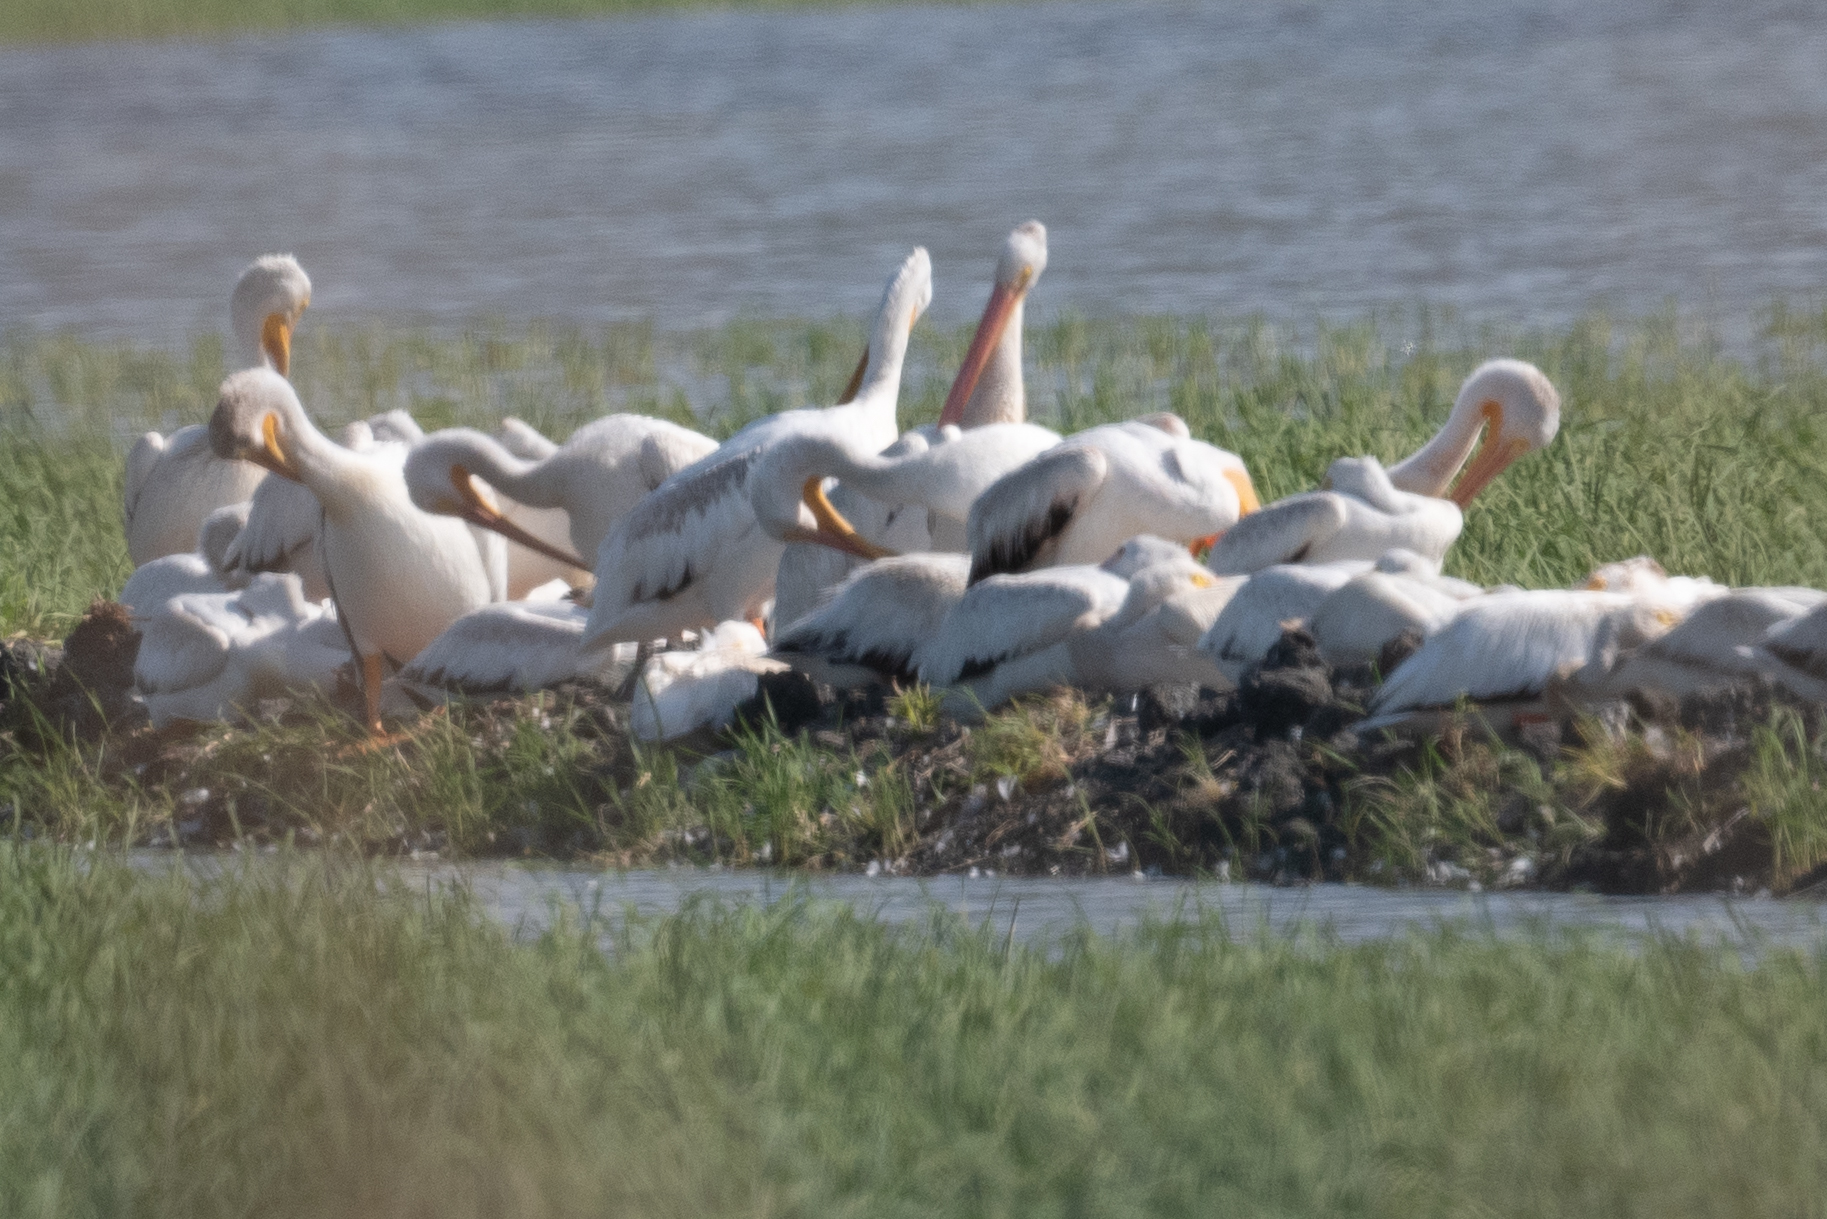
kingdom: Animalia
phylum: Chordata
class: Aves
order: Pelecaniformes
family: Pelecanidae
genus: Pelecanus
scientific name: Pelecanus erythrorhynchos
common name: American white pelican
